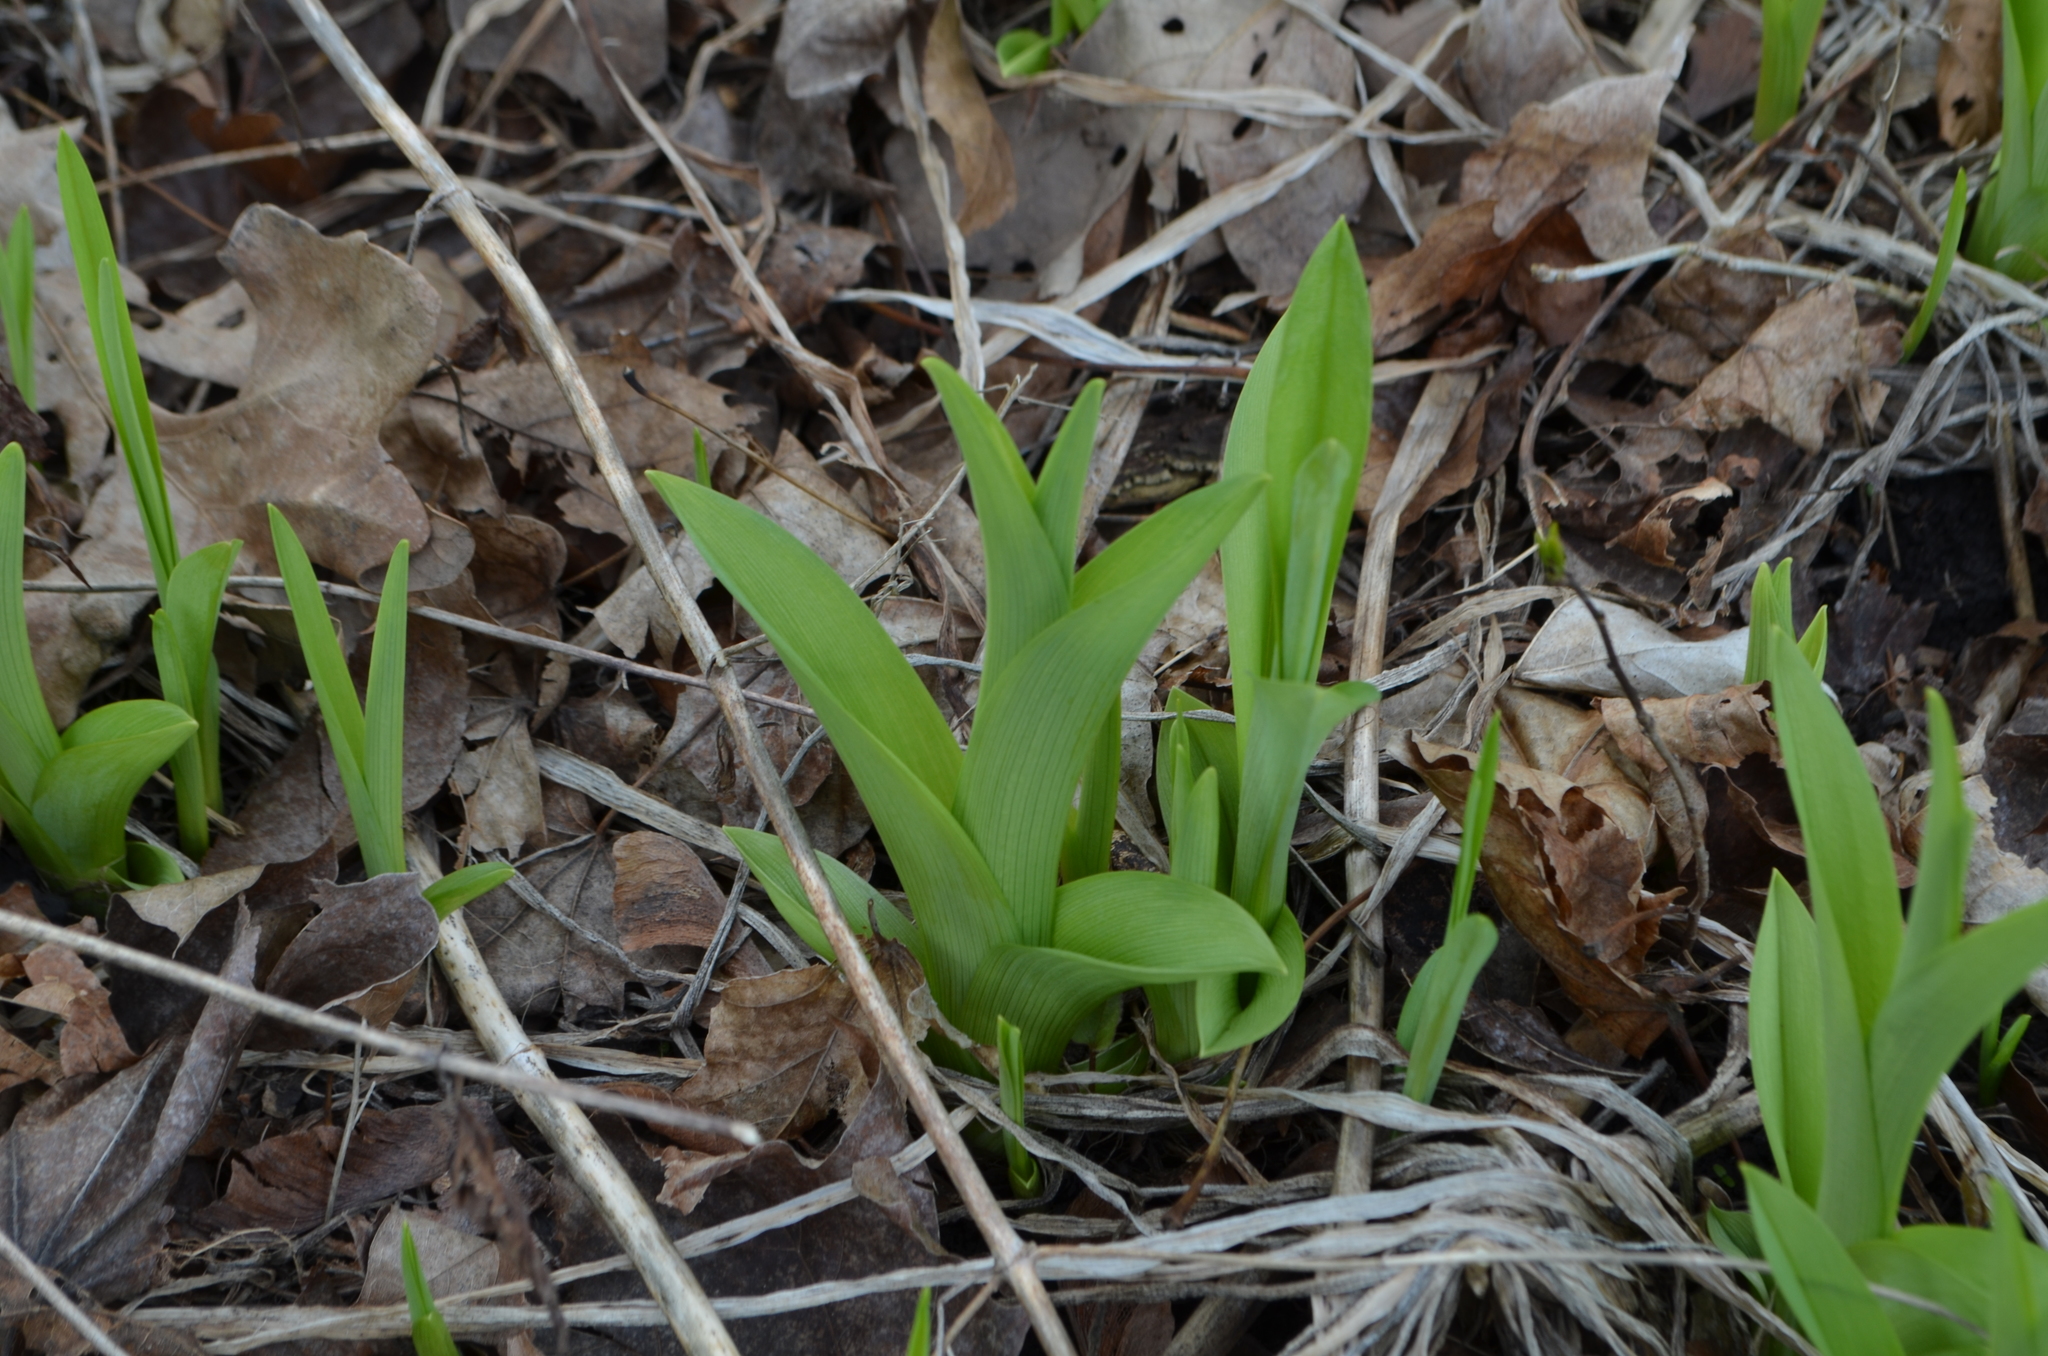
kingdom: Plantae
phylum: Tracheophyta
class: Liliopsida
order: Asparagales
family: Asphodelaceae
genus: Hemerocallis
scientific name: Hemerocallis fulva
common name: Orange day-lily
